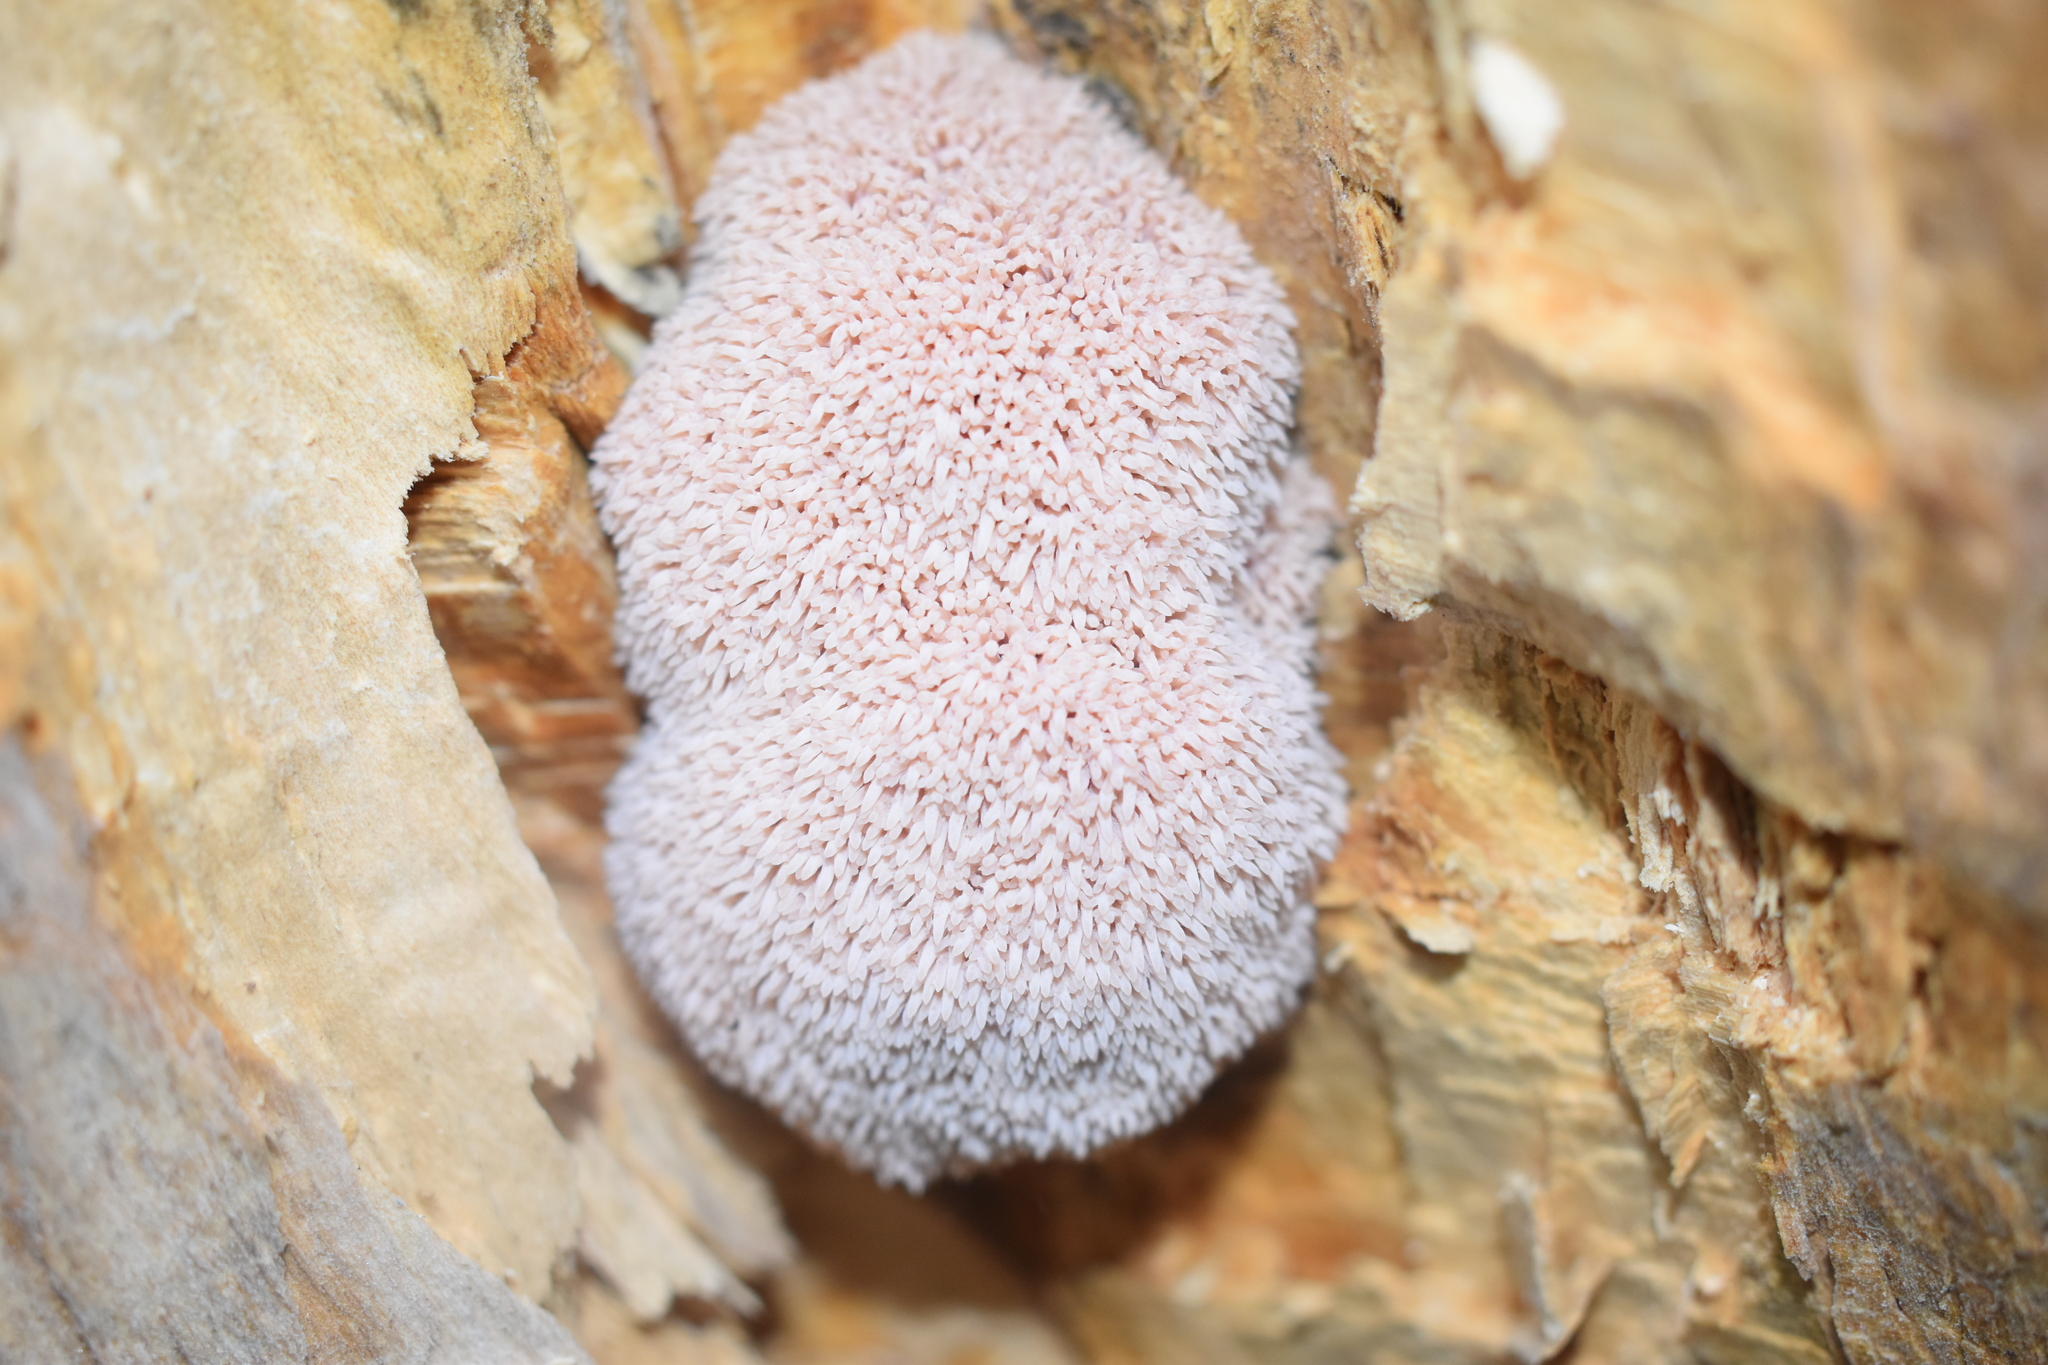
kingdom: Fungi
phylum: Basidiomycota
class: Agaricomycetes
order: Russulales
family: Hericiaceae
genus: Hericium
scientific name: Hericium novae-zealandiae
